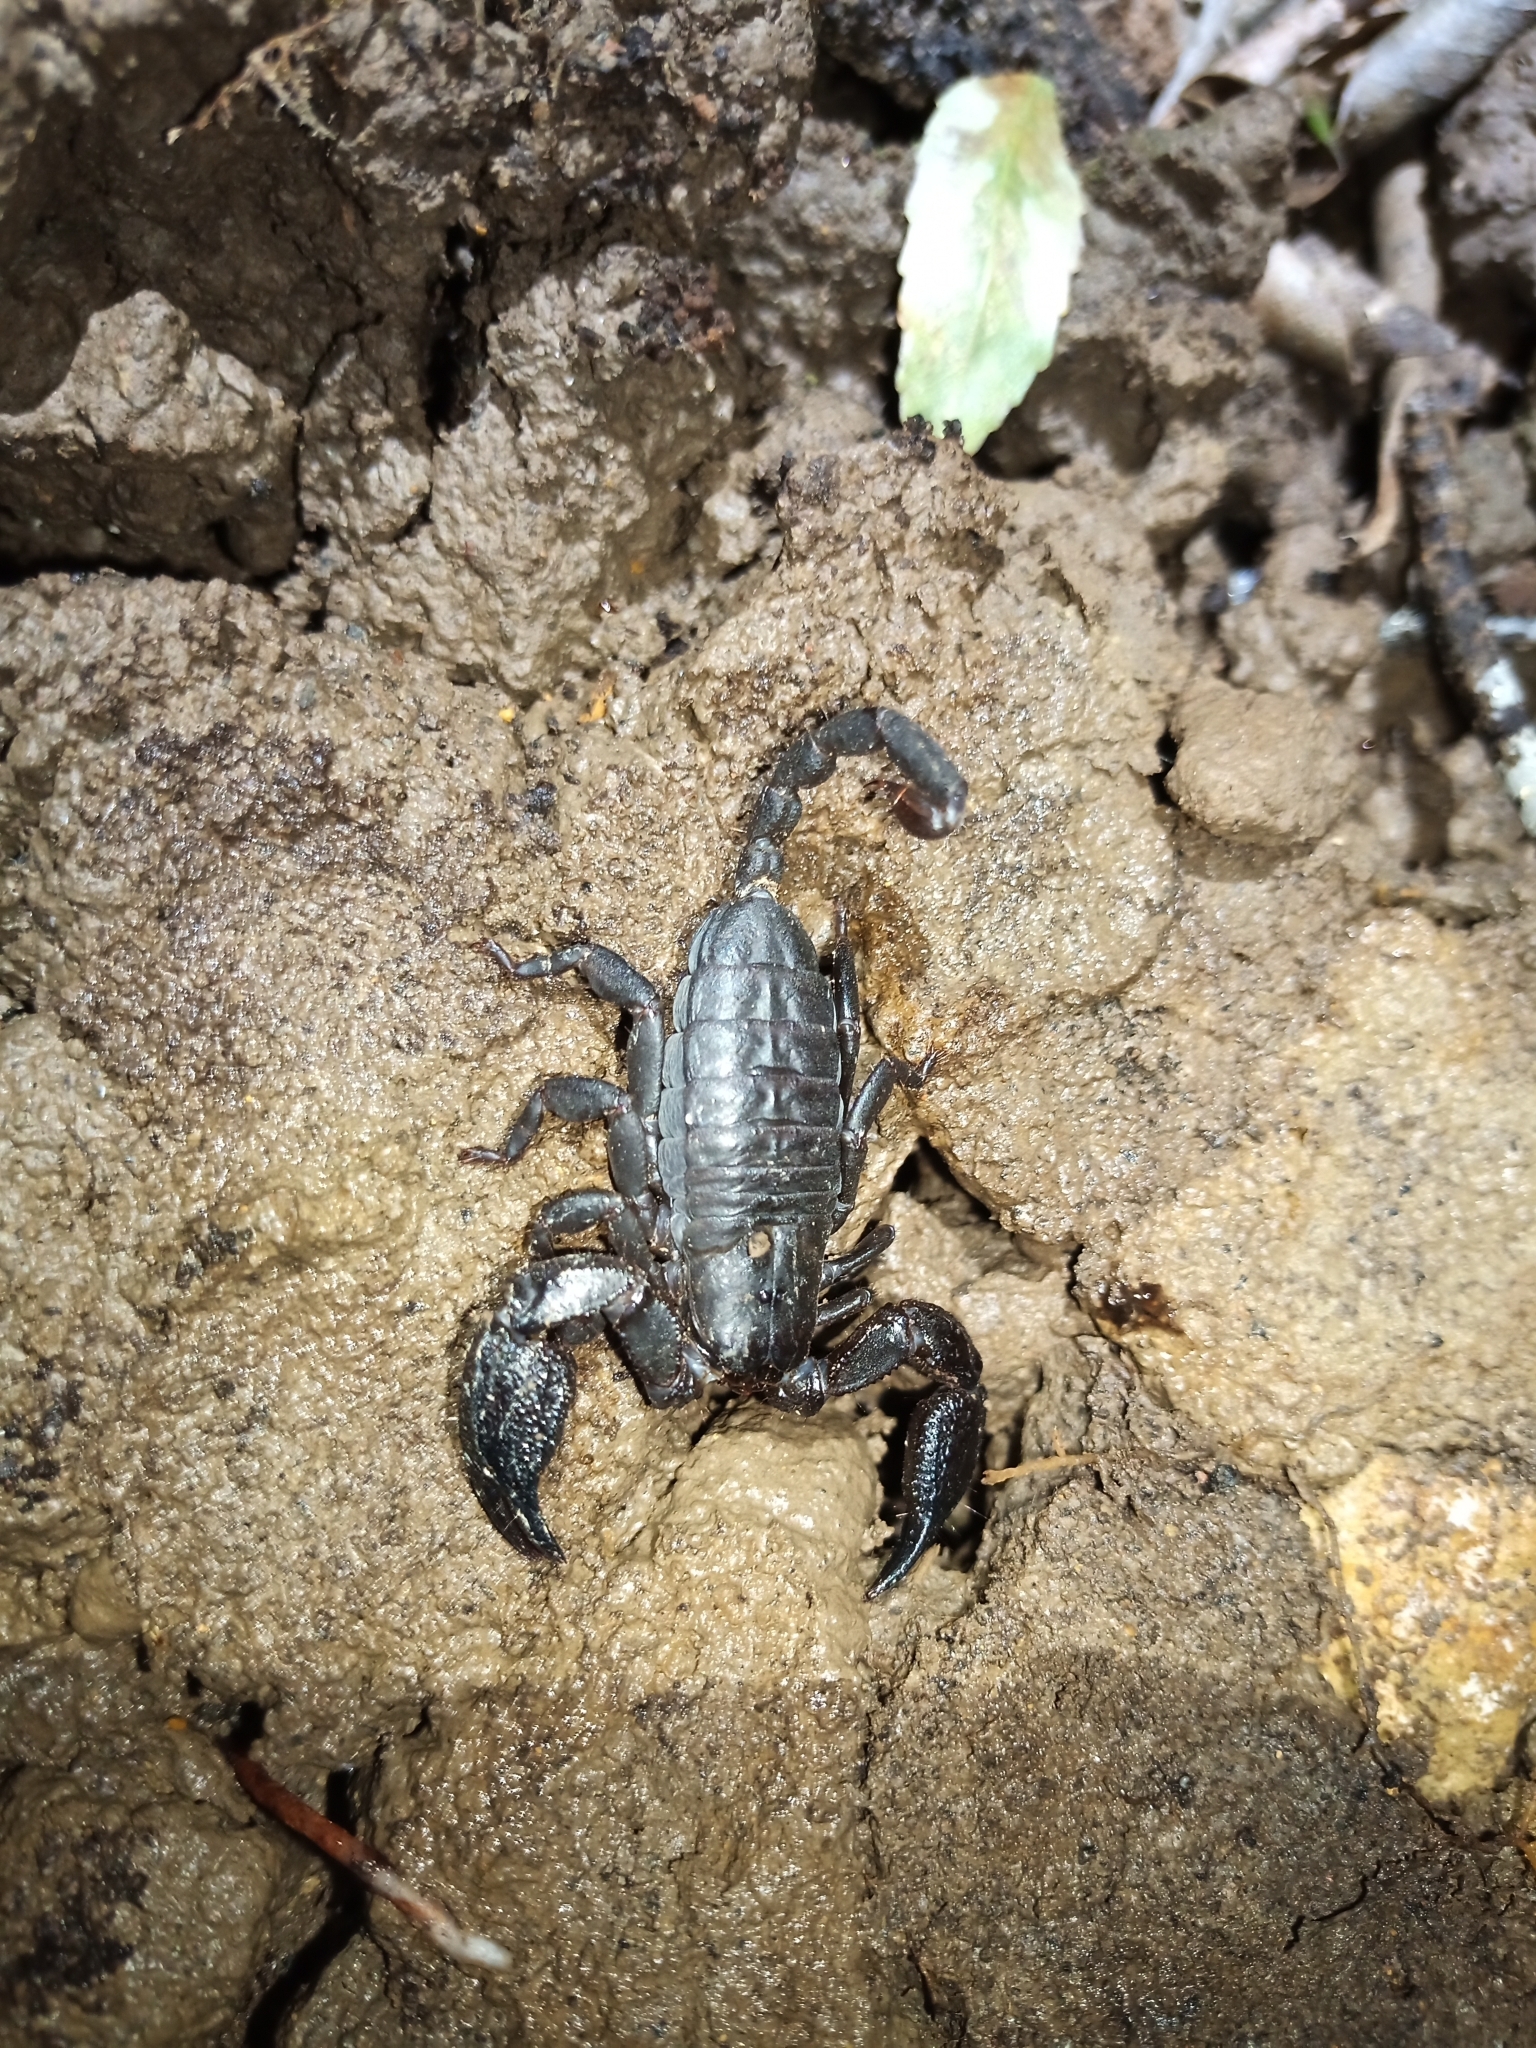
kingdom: Animalia
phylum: Arthropoda
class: Arachnida
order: Scorpiones
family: Hormuridae
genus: Opisthacanthus
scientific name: Opisthacanthus capensis
